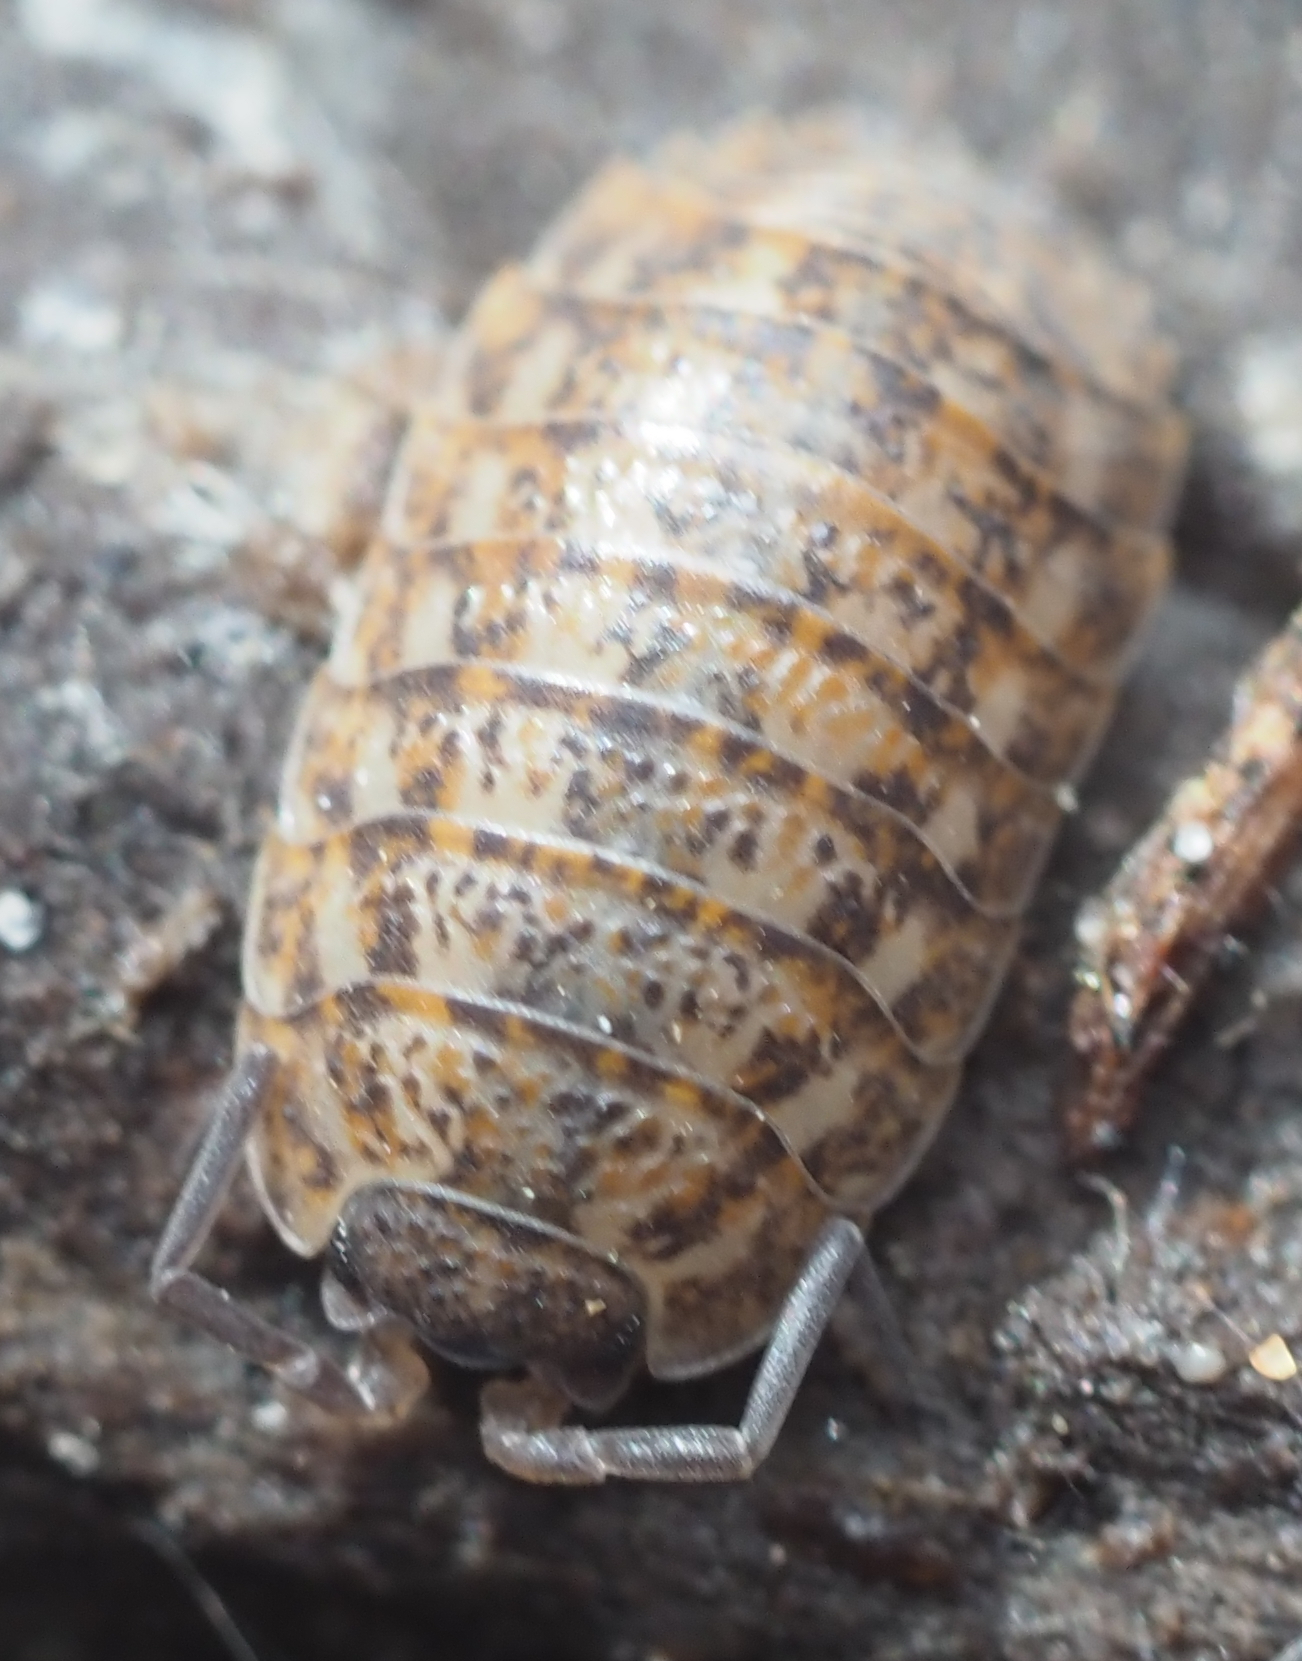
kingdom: Animalia
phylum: Arthropoda
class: Malacostraca
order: Isopoda
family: Trachelipodidae
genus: Trachelipus
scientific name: Trachelipus rathkii
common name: Isopod
